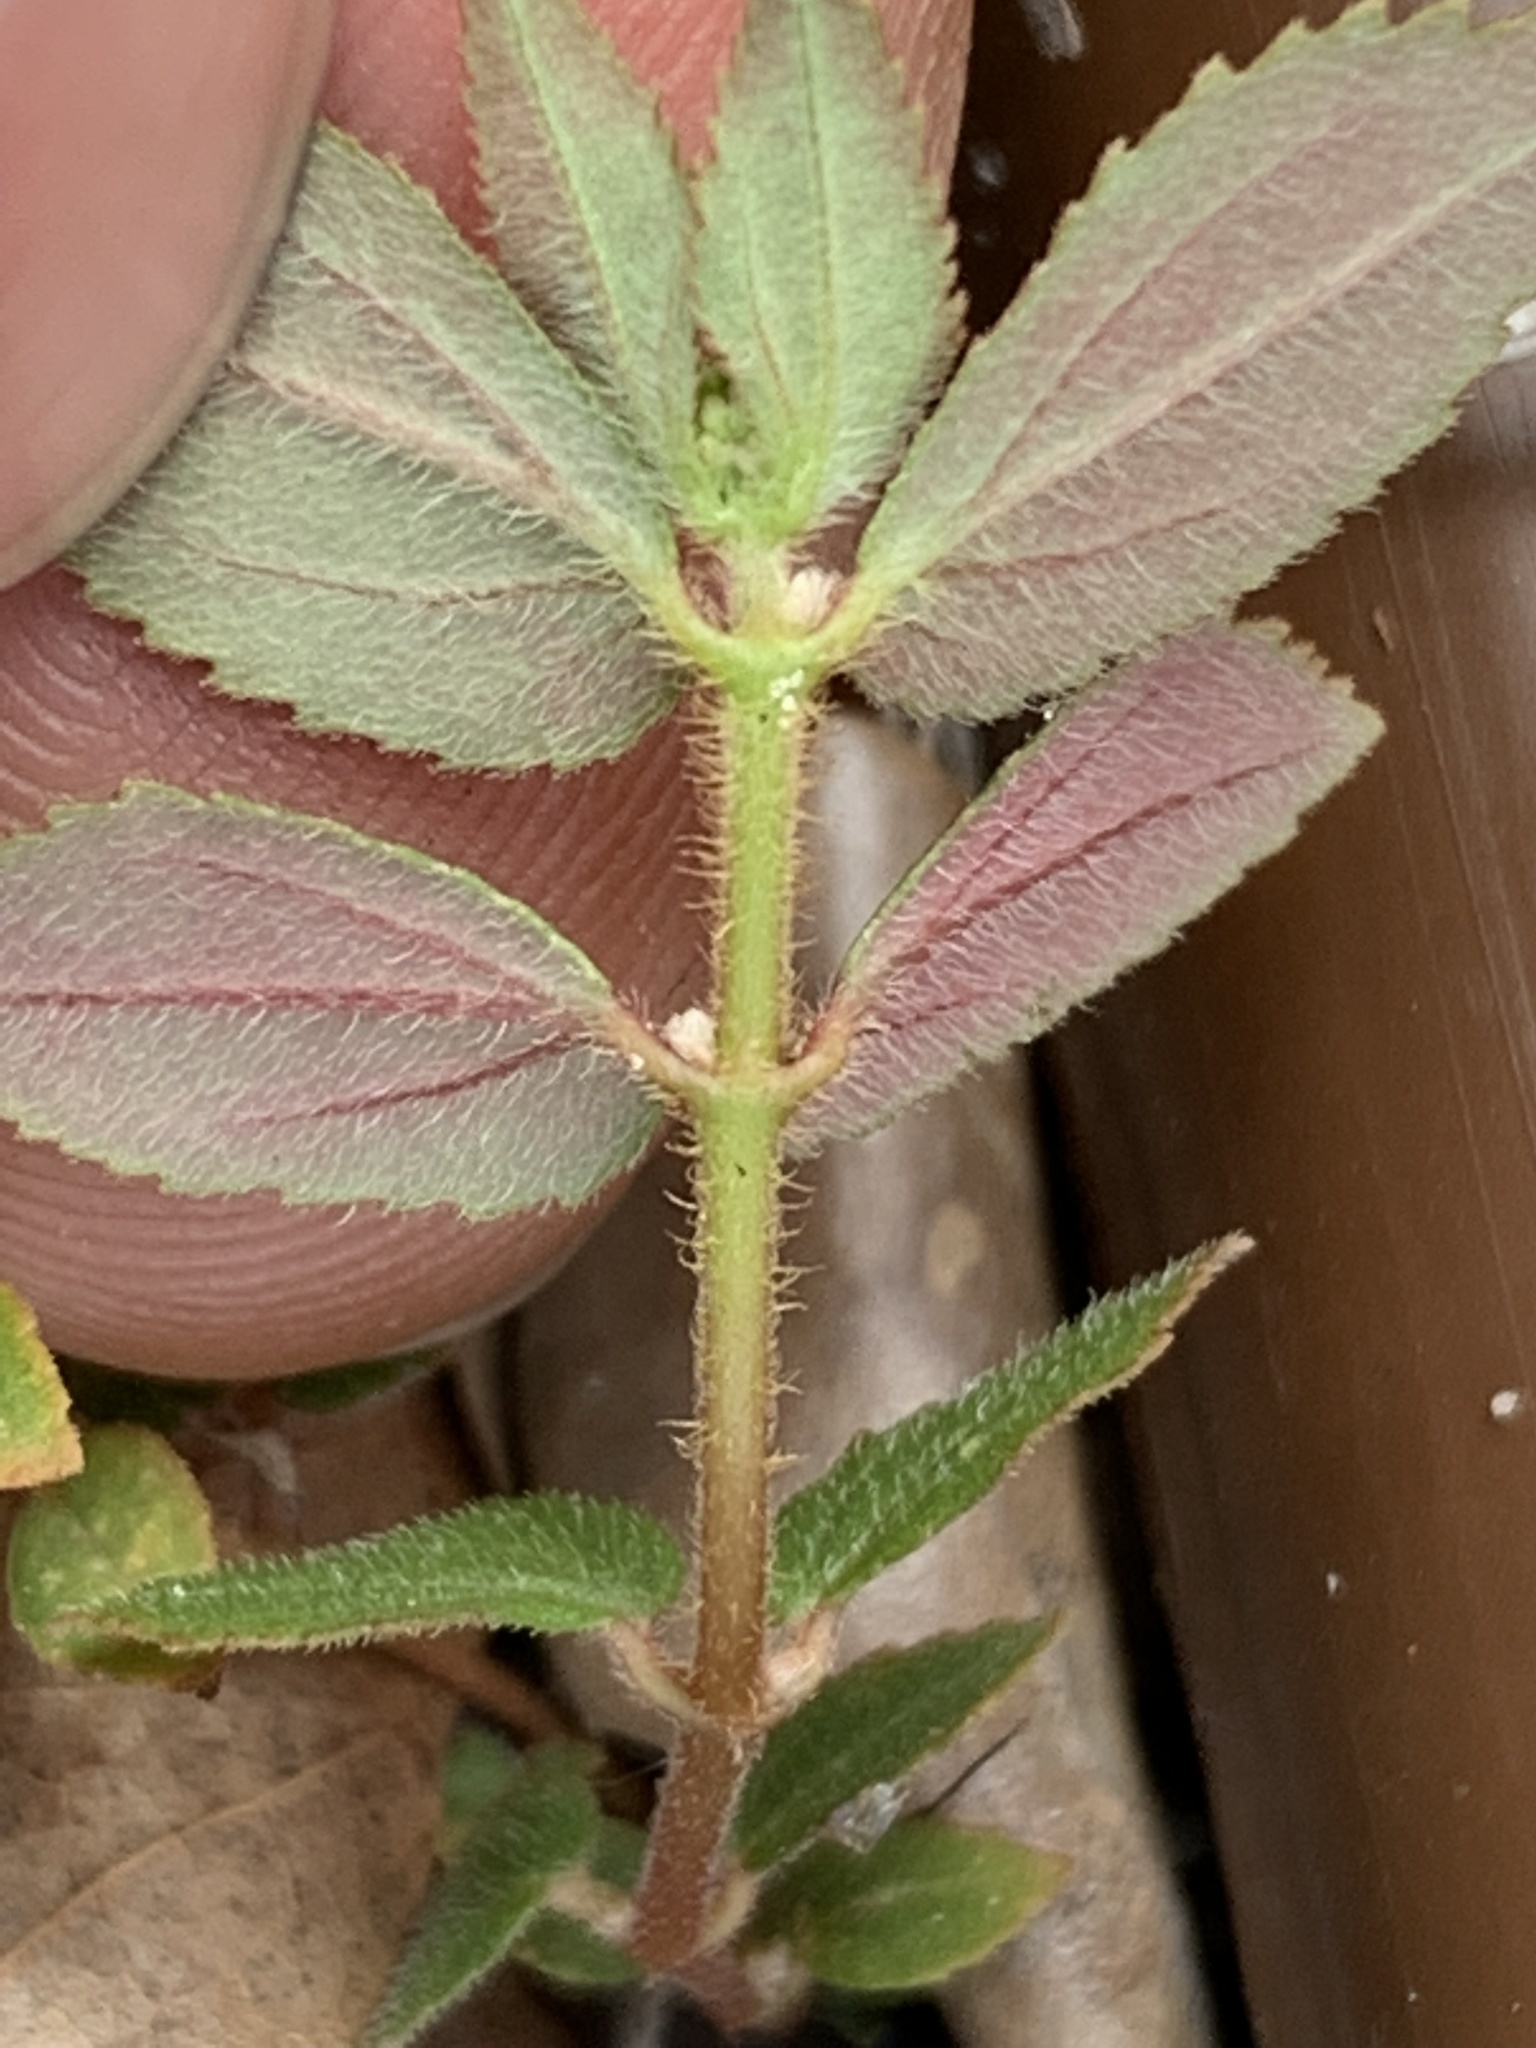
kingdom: Plantae
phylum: Tracheophyta
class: Magnoliopsida
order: Malpighiales
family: Euphorbiaceae
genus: Euphorbia
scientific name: Euphorbia ophthalmica
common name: Florida hammock sandmat
